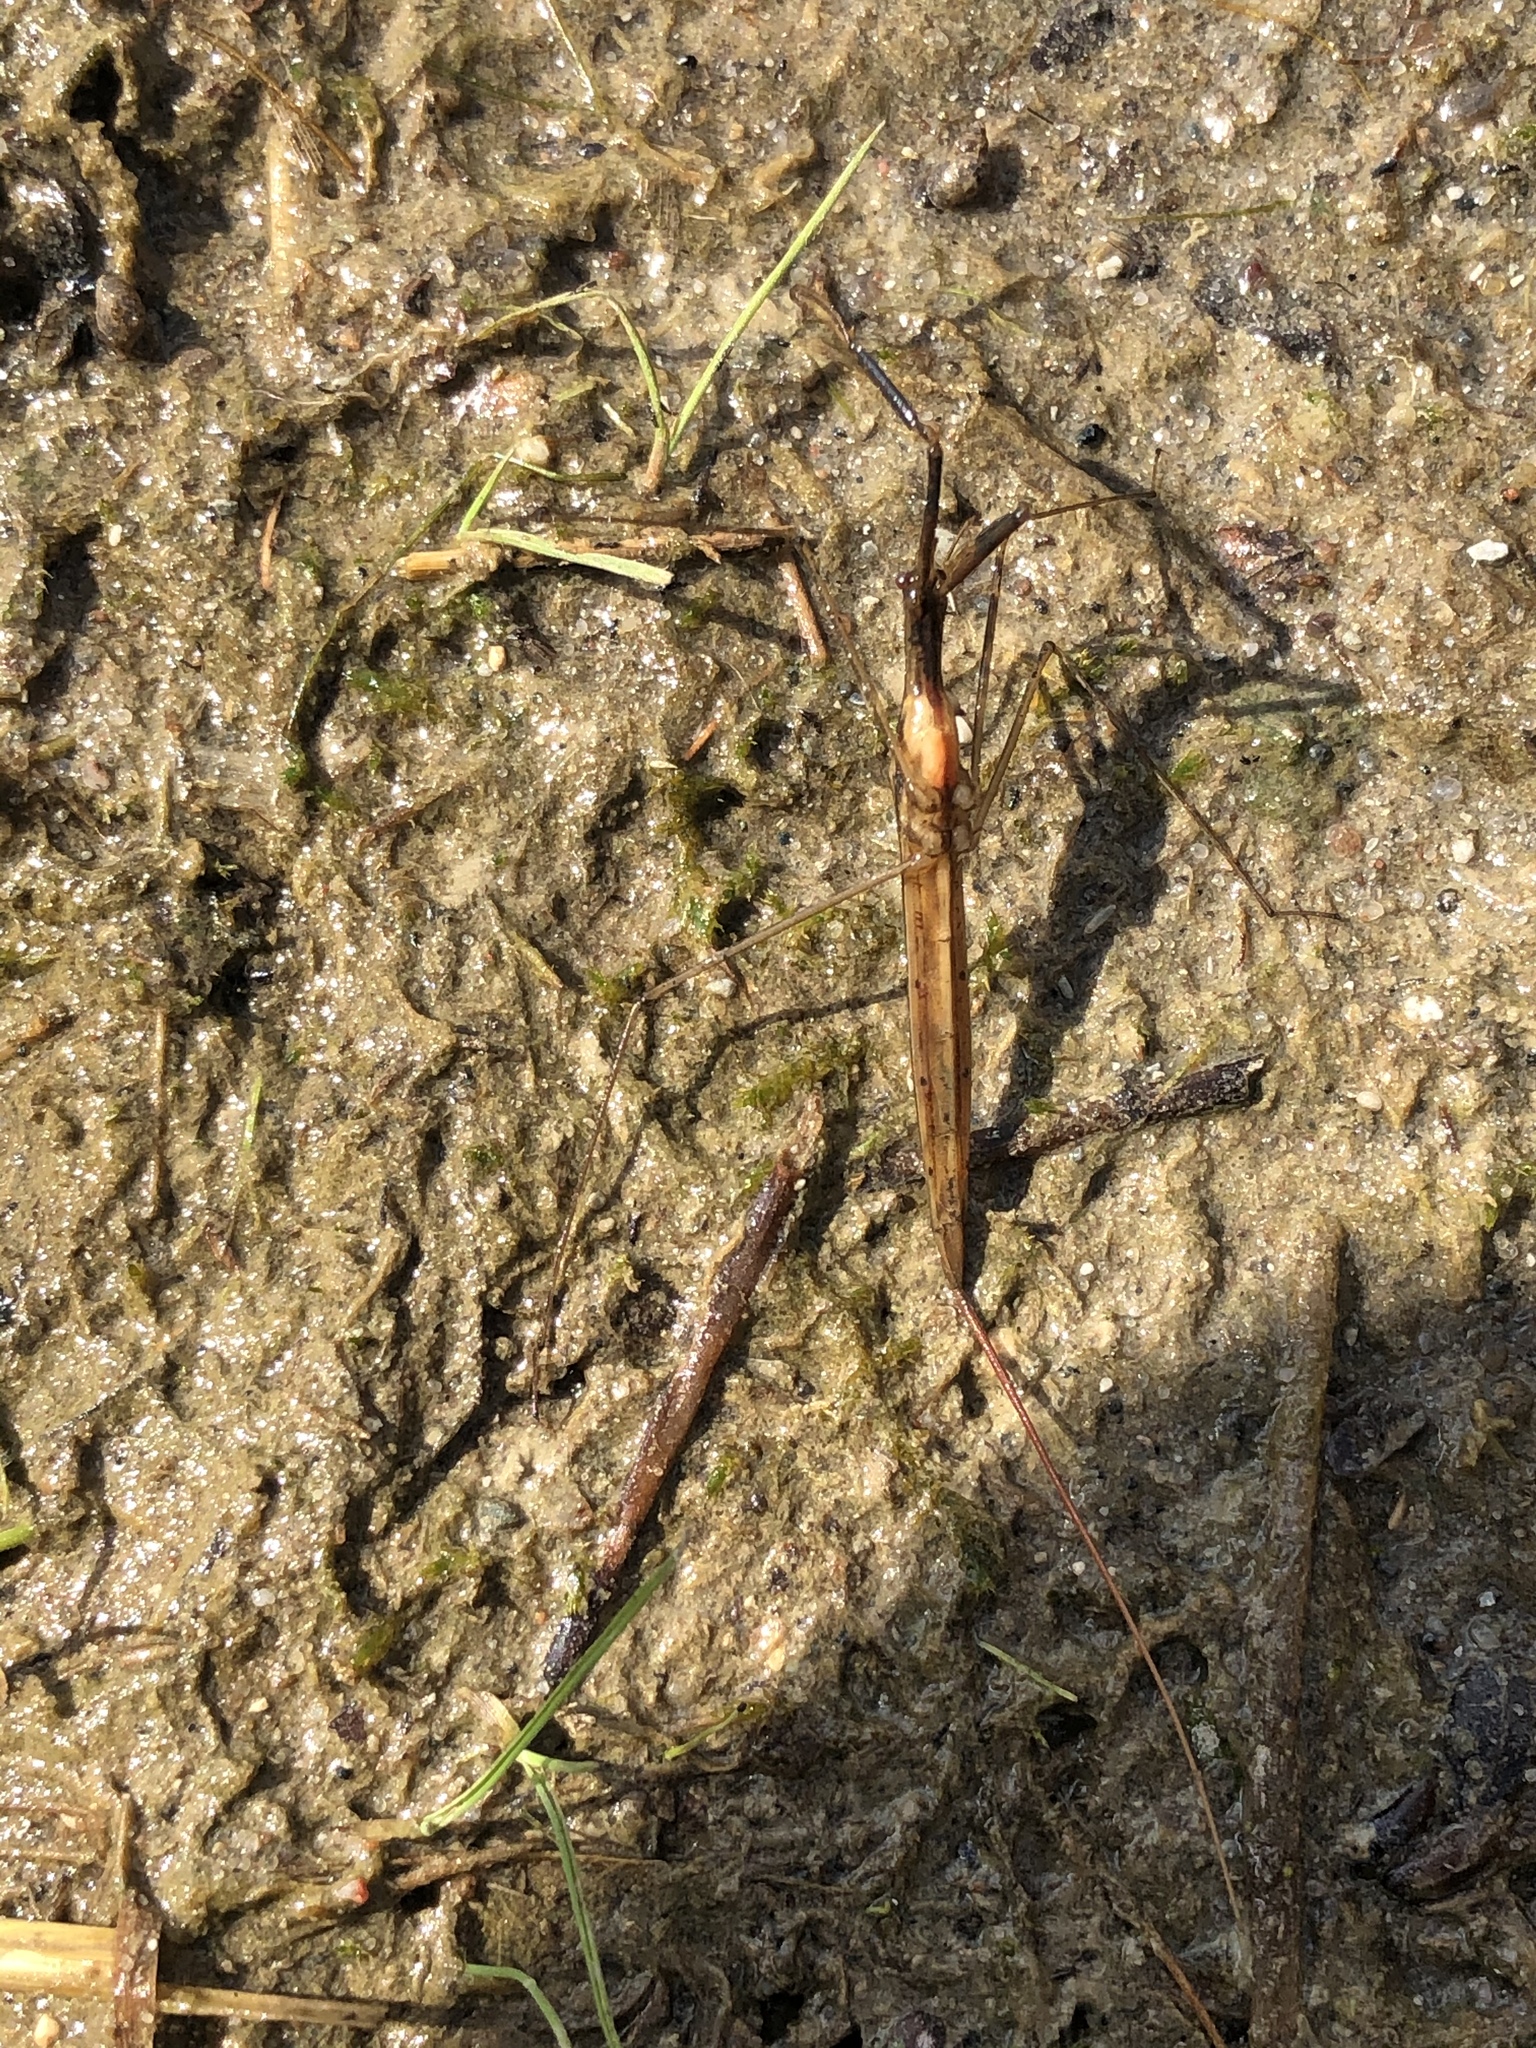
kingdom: Animalia
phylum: Arthropoda
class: Insecta
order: Hemiptera
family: Nepidae
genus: Ranatra
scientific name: Ranatra linearis
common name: Water stick insect
